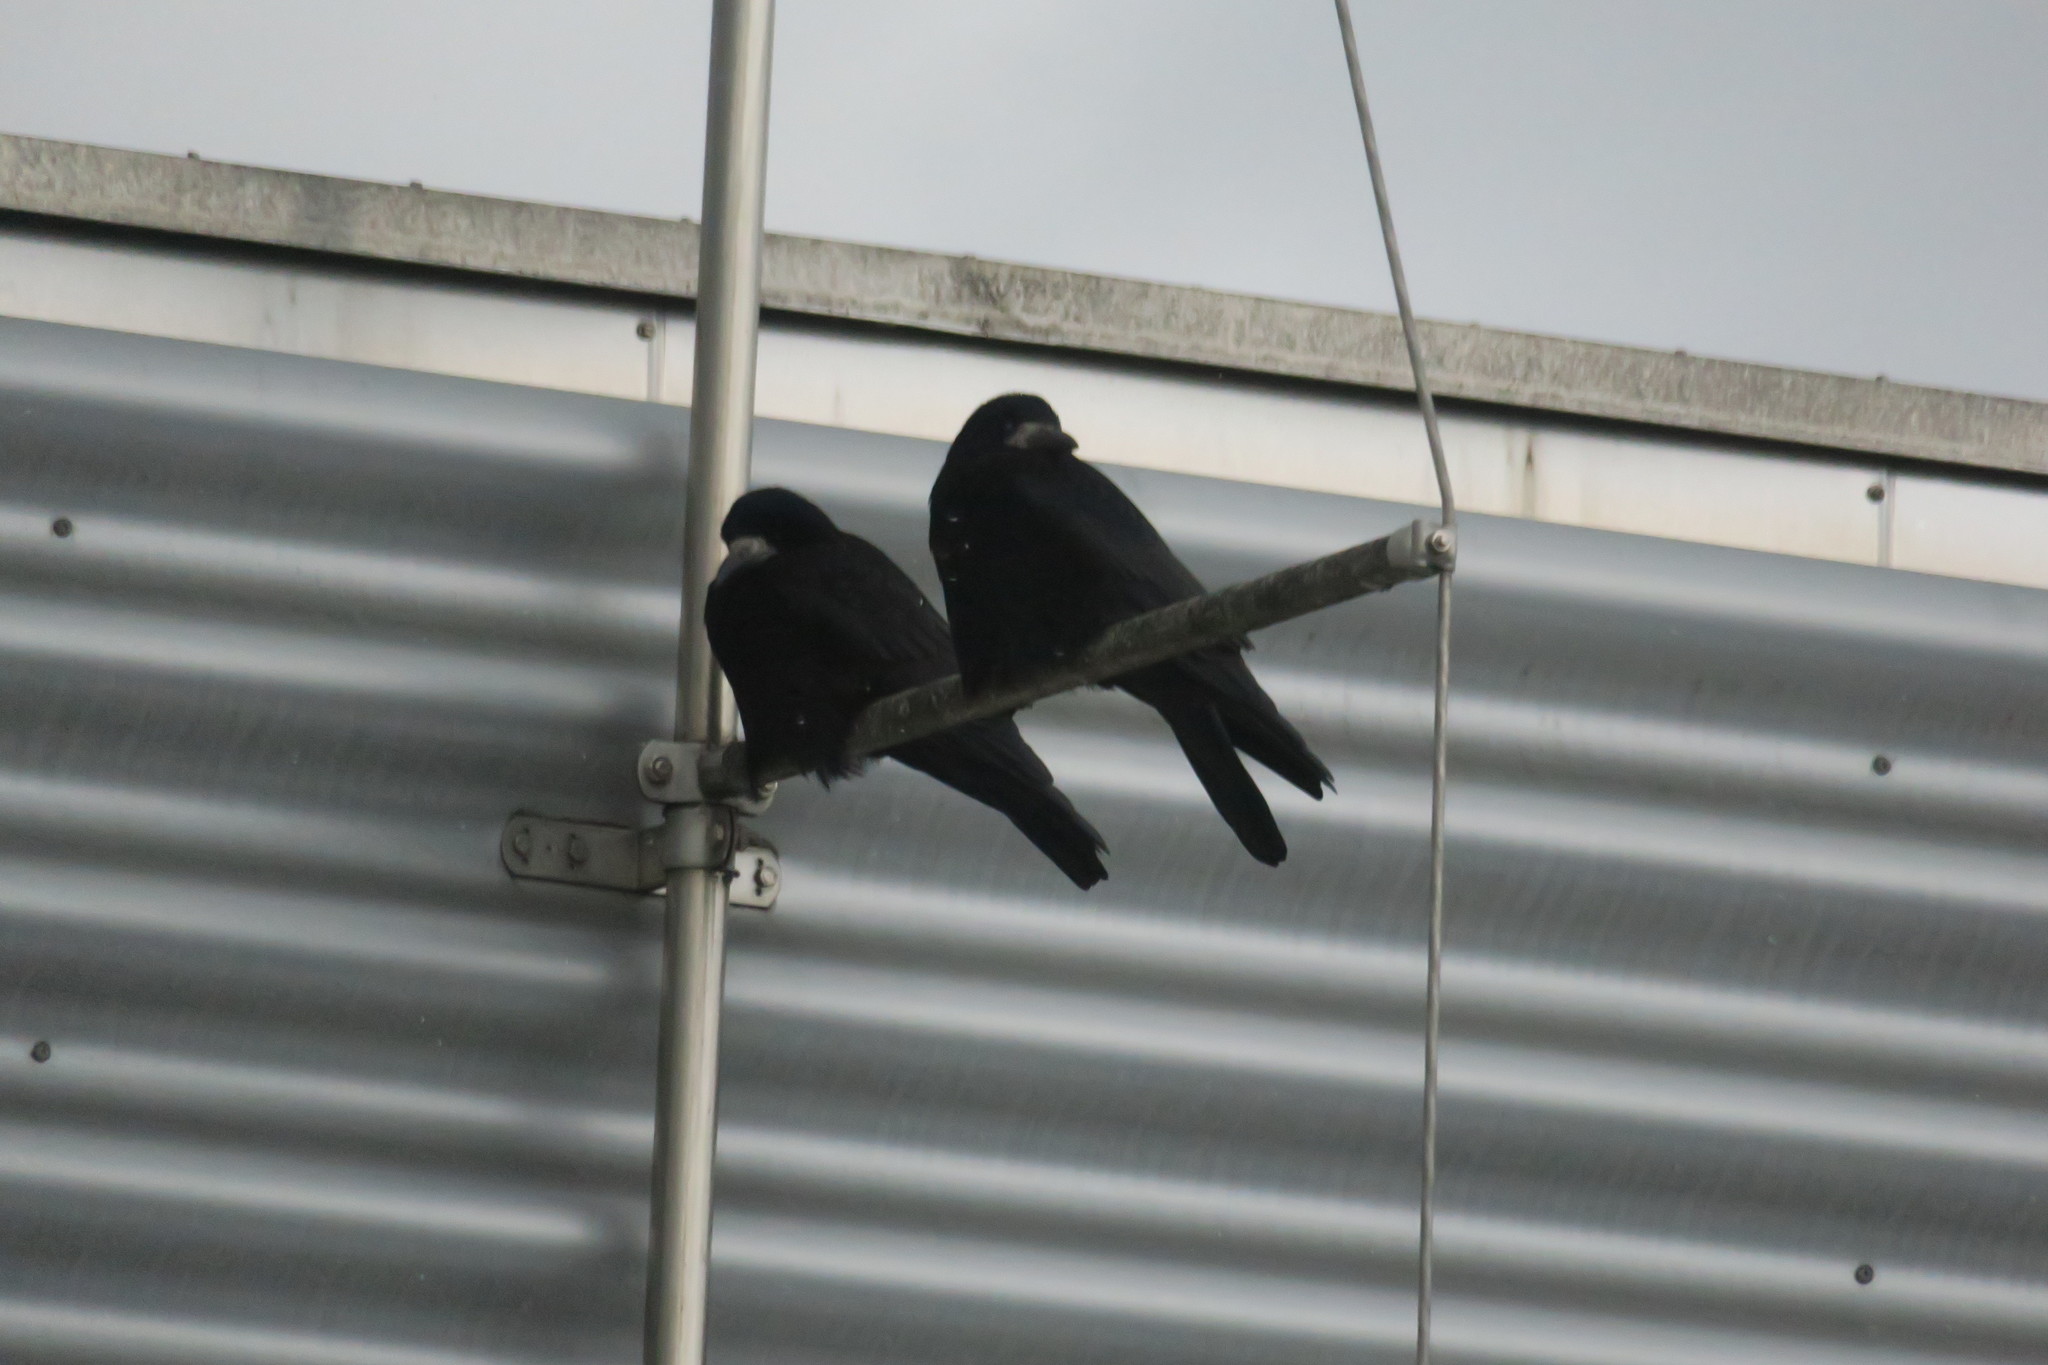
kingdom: Animalia
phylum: Chordata
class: Aves
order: Passeriformes
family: Corvidae
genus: Corvus
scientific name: Corvus frugilegus
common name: Rook
